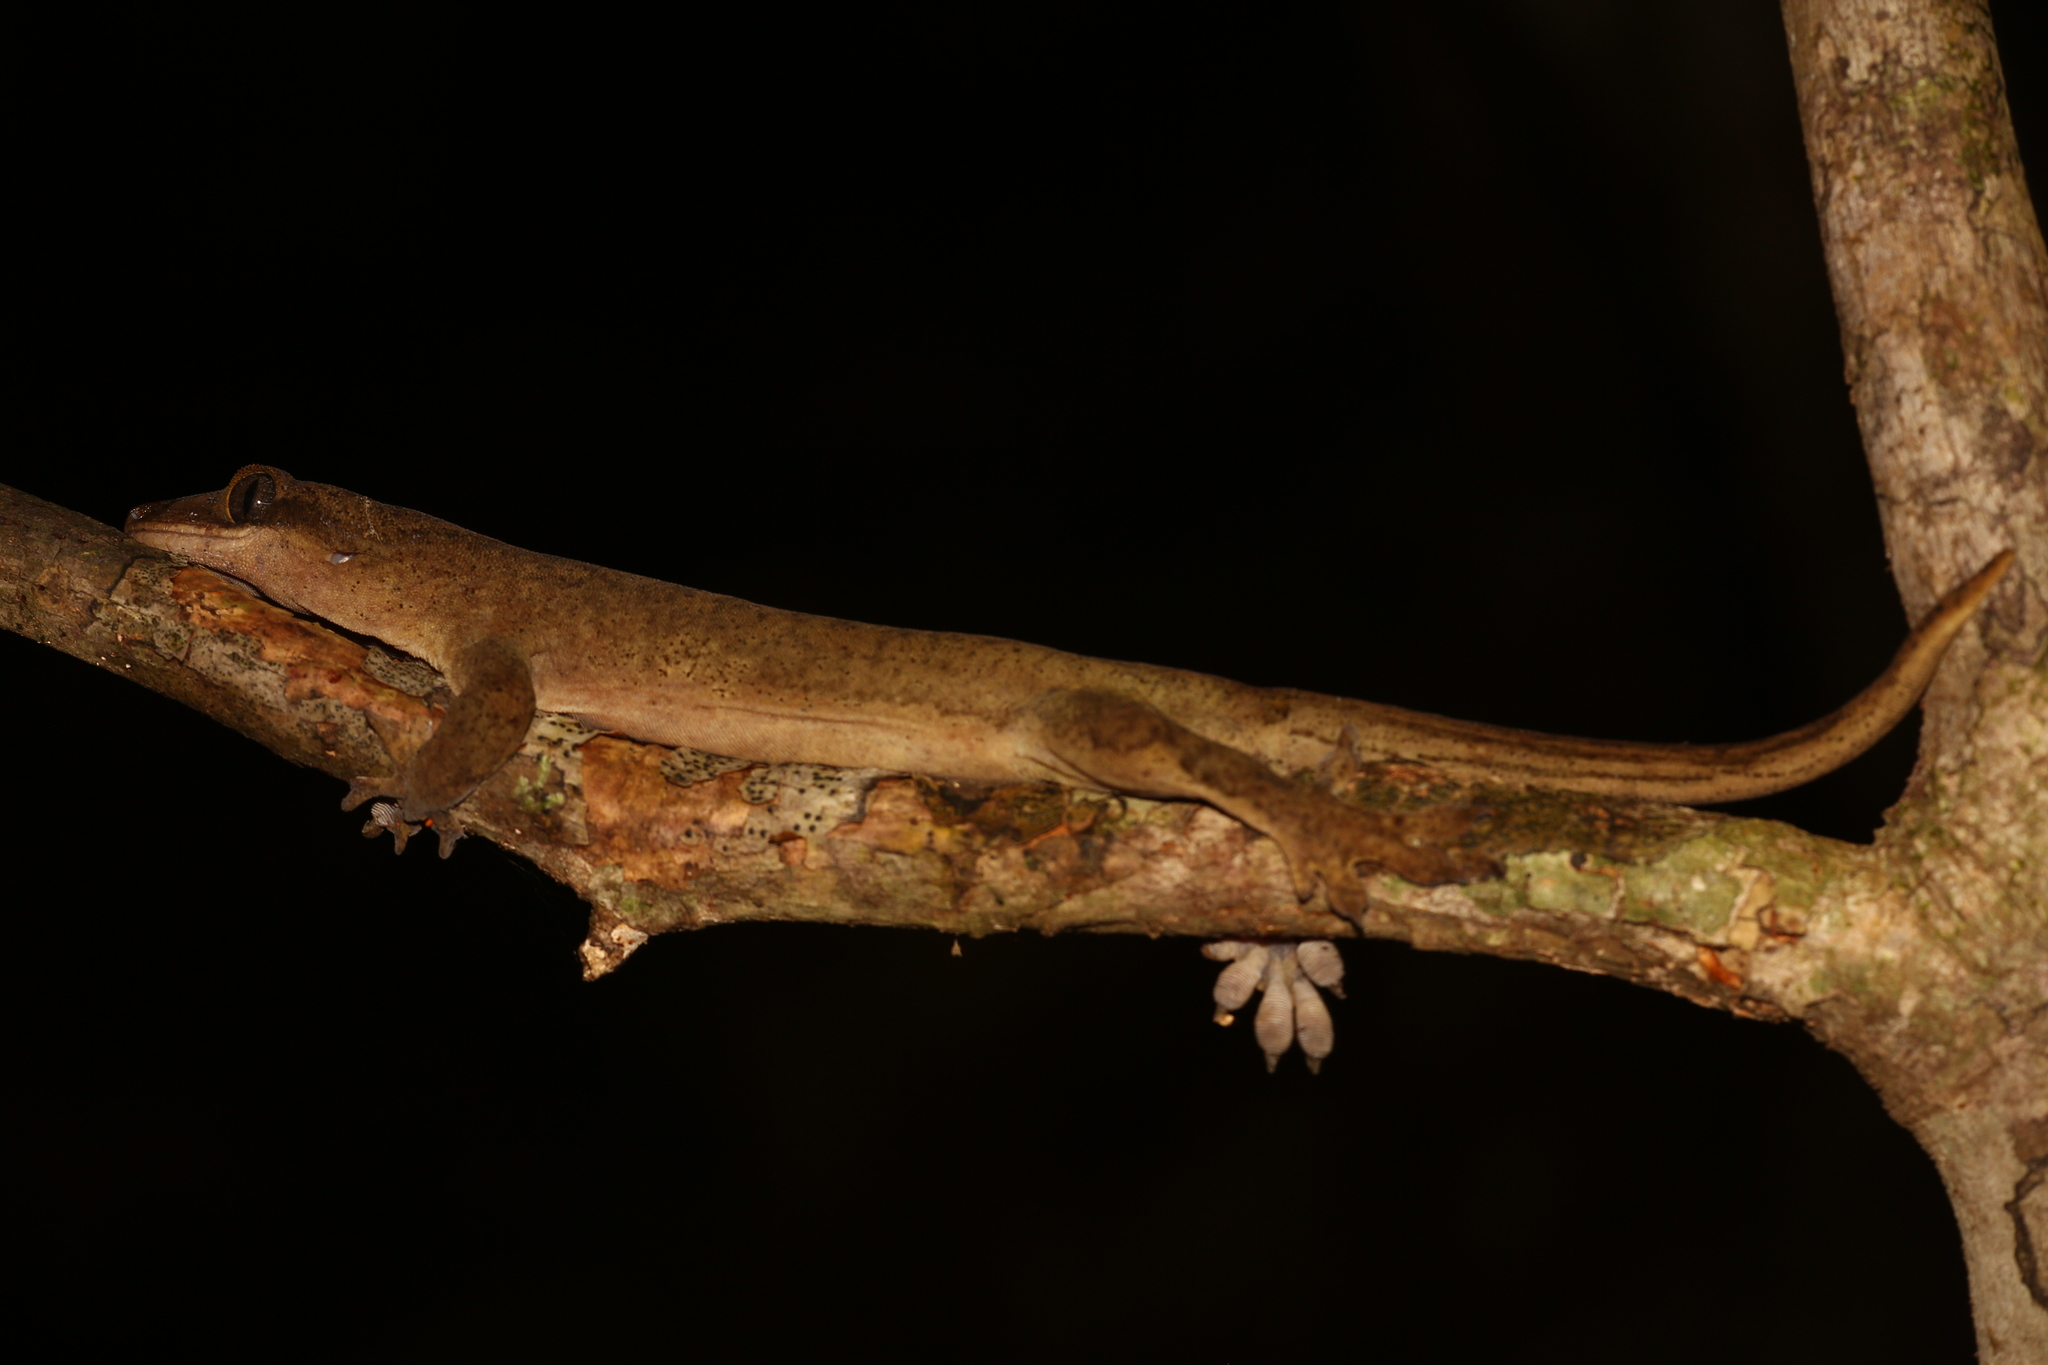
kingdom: Animalia
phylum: Chordata
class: Squamata
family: Diplodactylidae
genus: Correlophus
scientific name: Correlophus sarasinorum
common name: Roux's giant gecko
